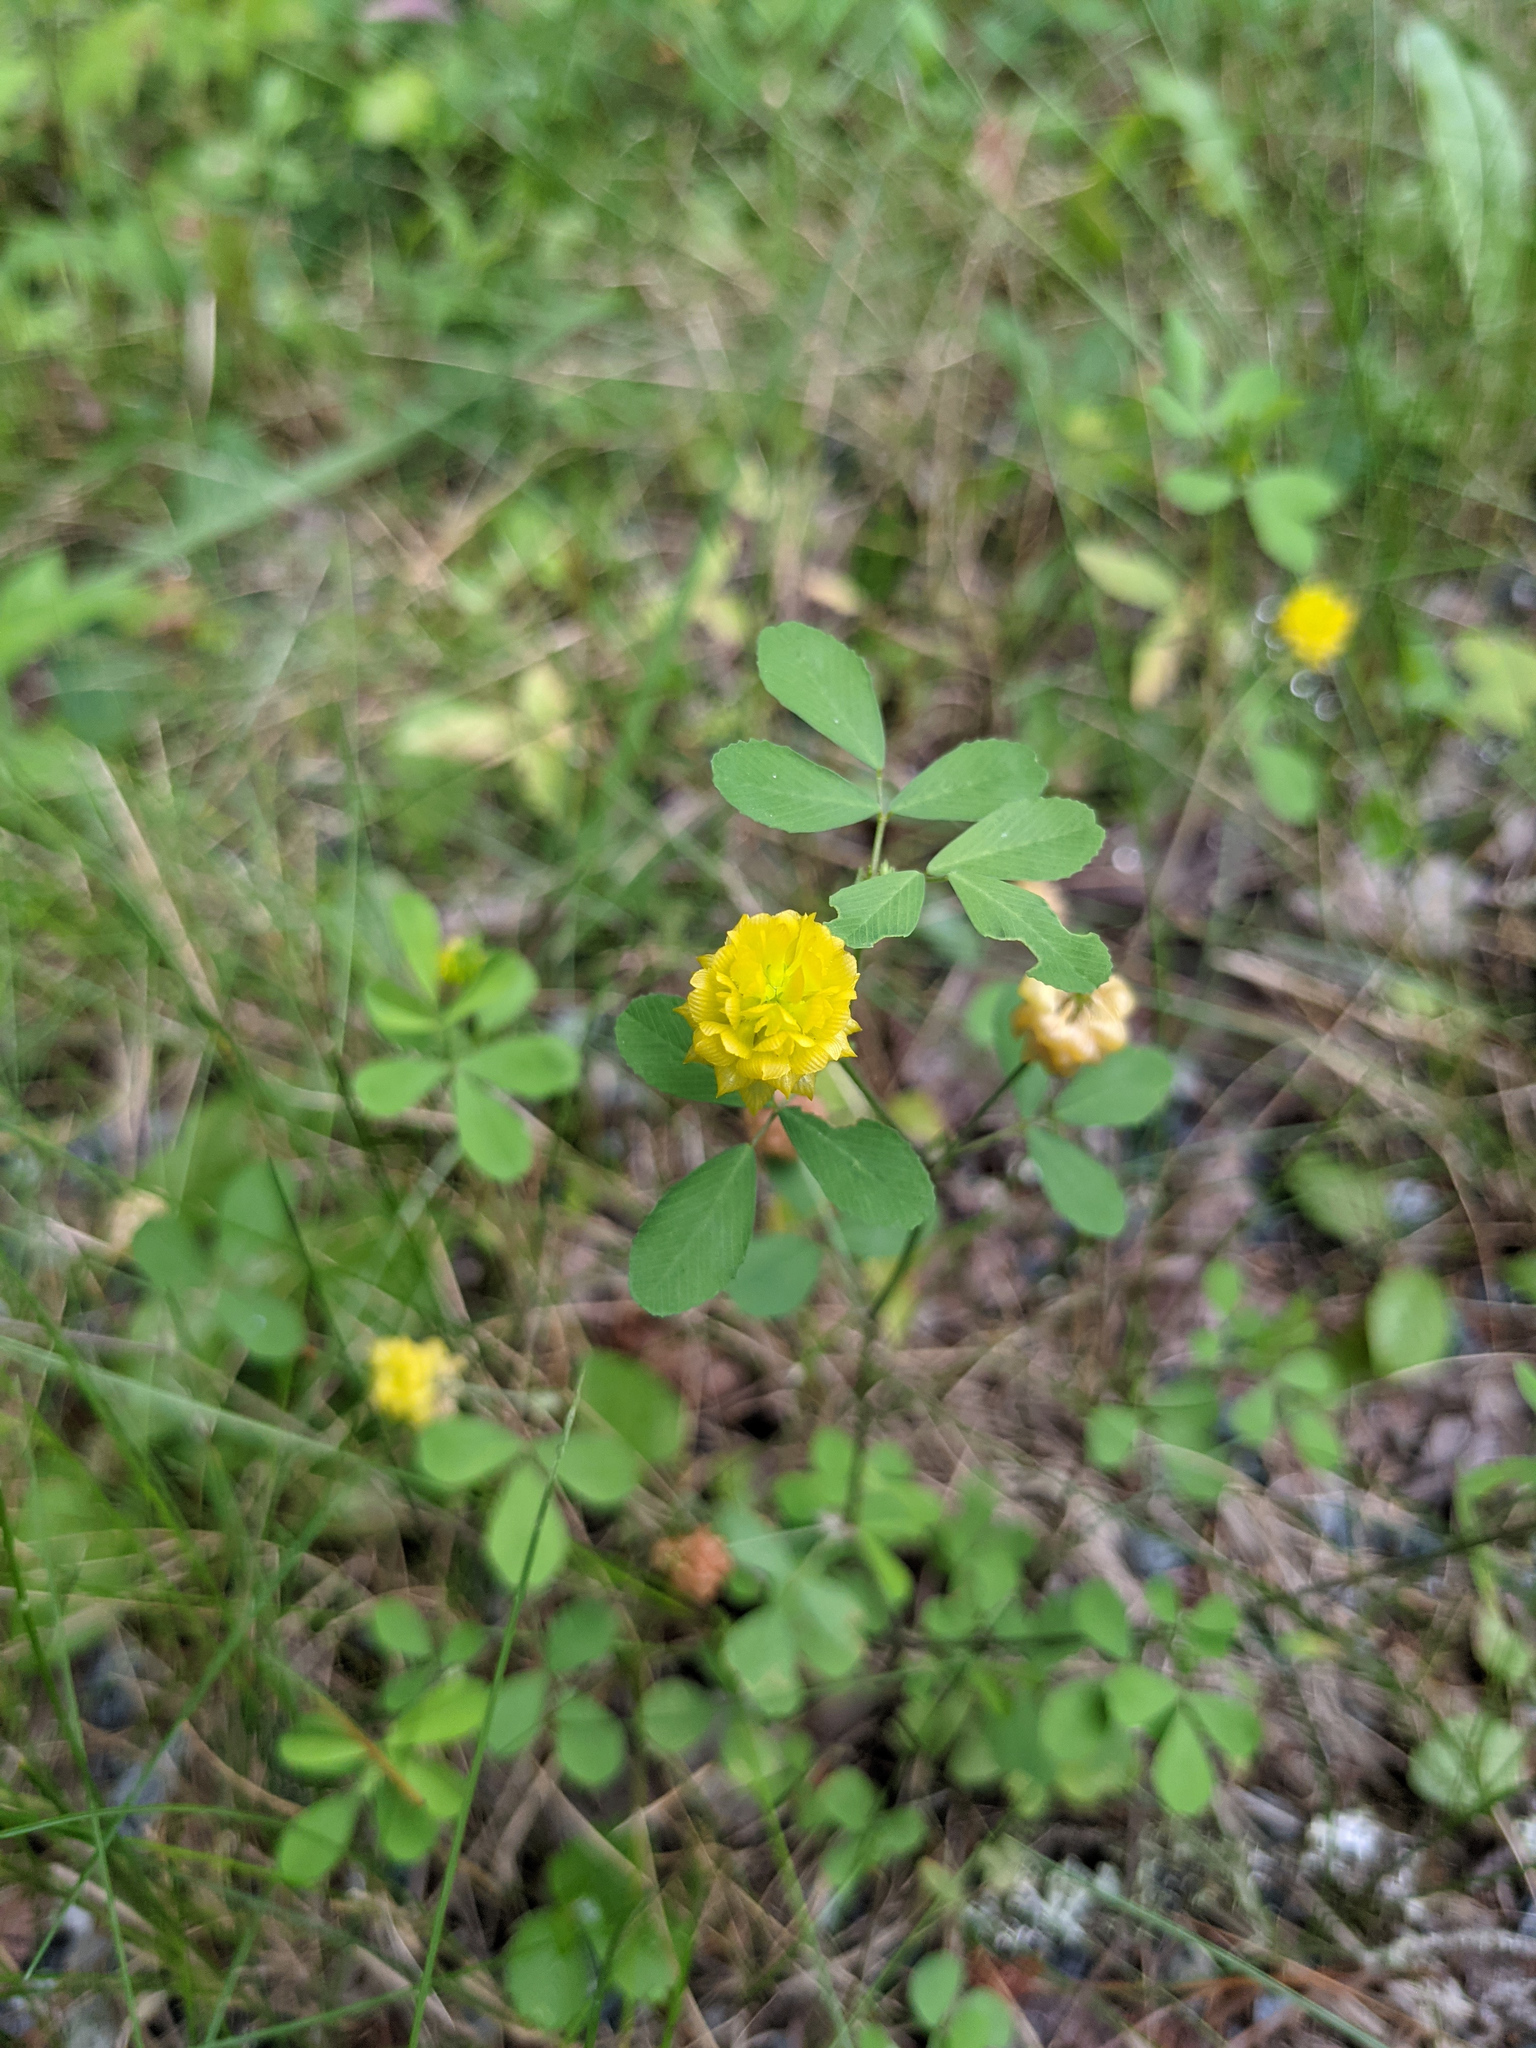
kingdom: Plantae
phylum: Tracheophyta
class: Magnoliopsida
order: Fabales
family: Fabaceae
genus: Trifolium
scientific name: Trifolium campestre
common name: Field clover
